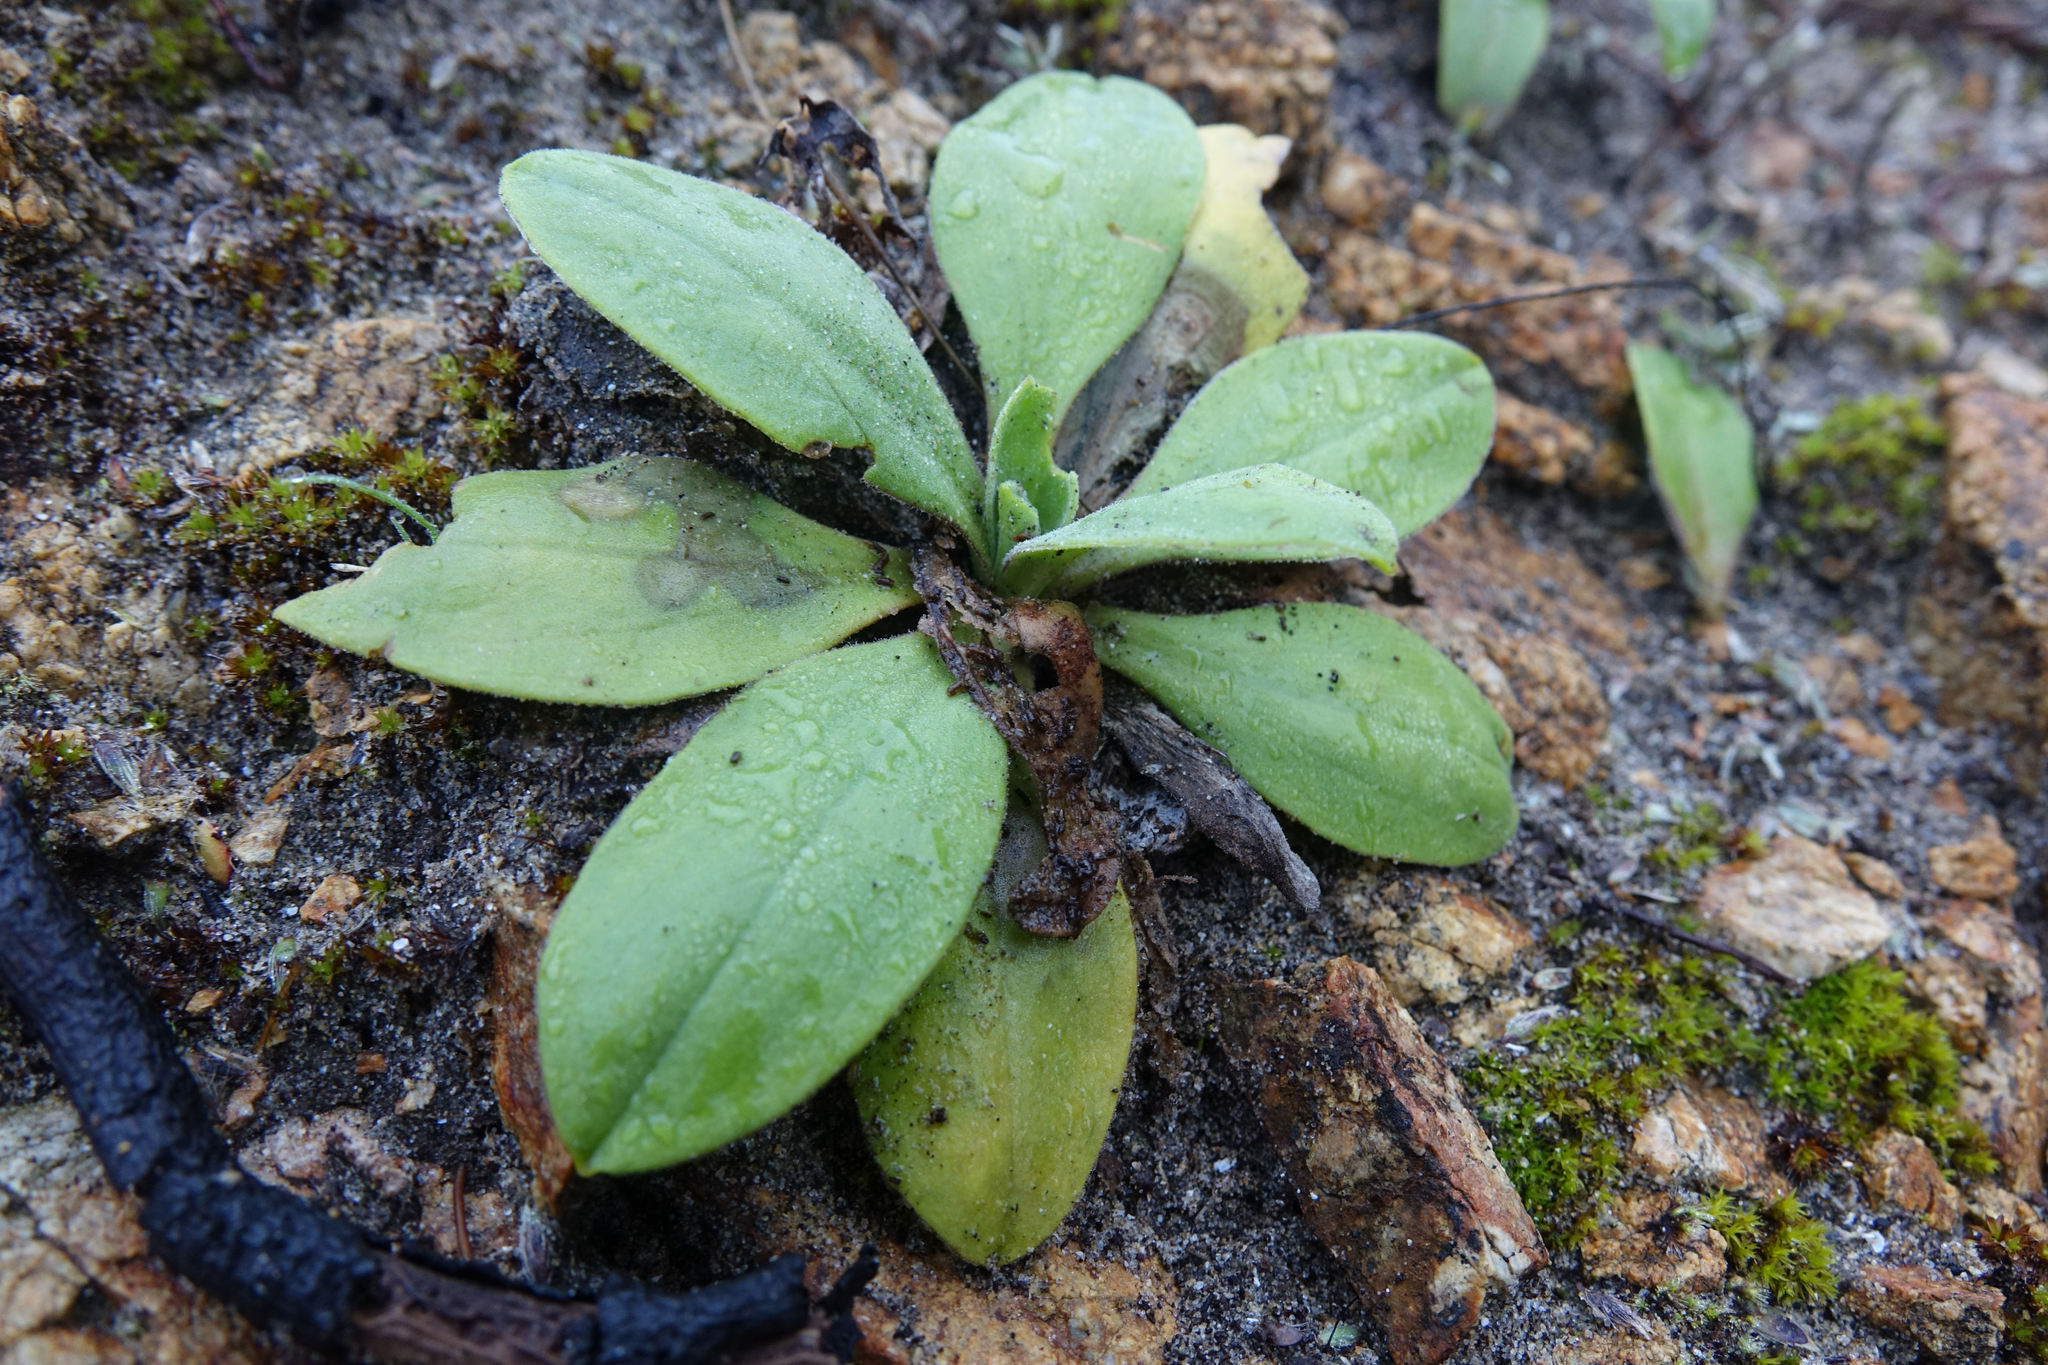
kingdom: Plantae
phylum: Tracheophyta
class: Magnoliopsida
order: Asterales
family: Asteraceae
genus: Craspedia
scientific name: Craspedia robusta
